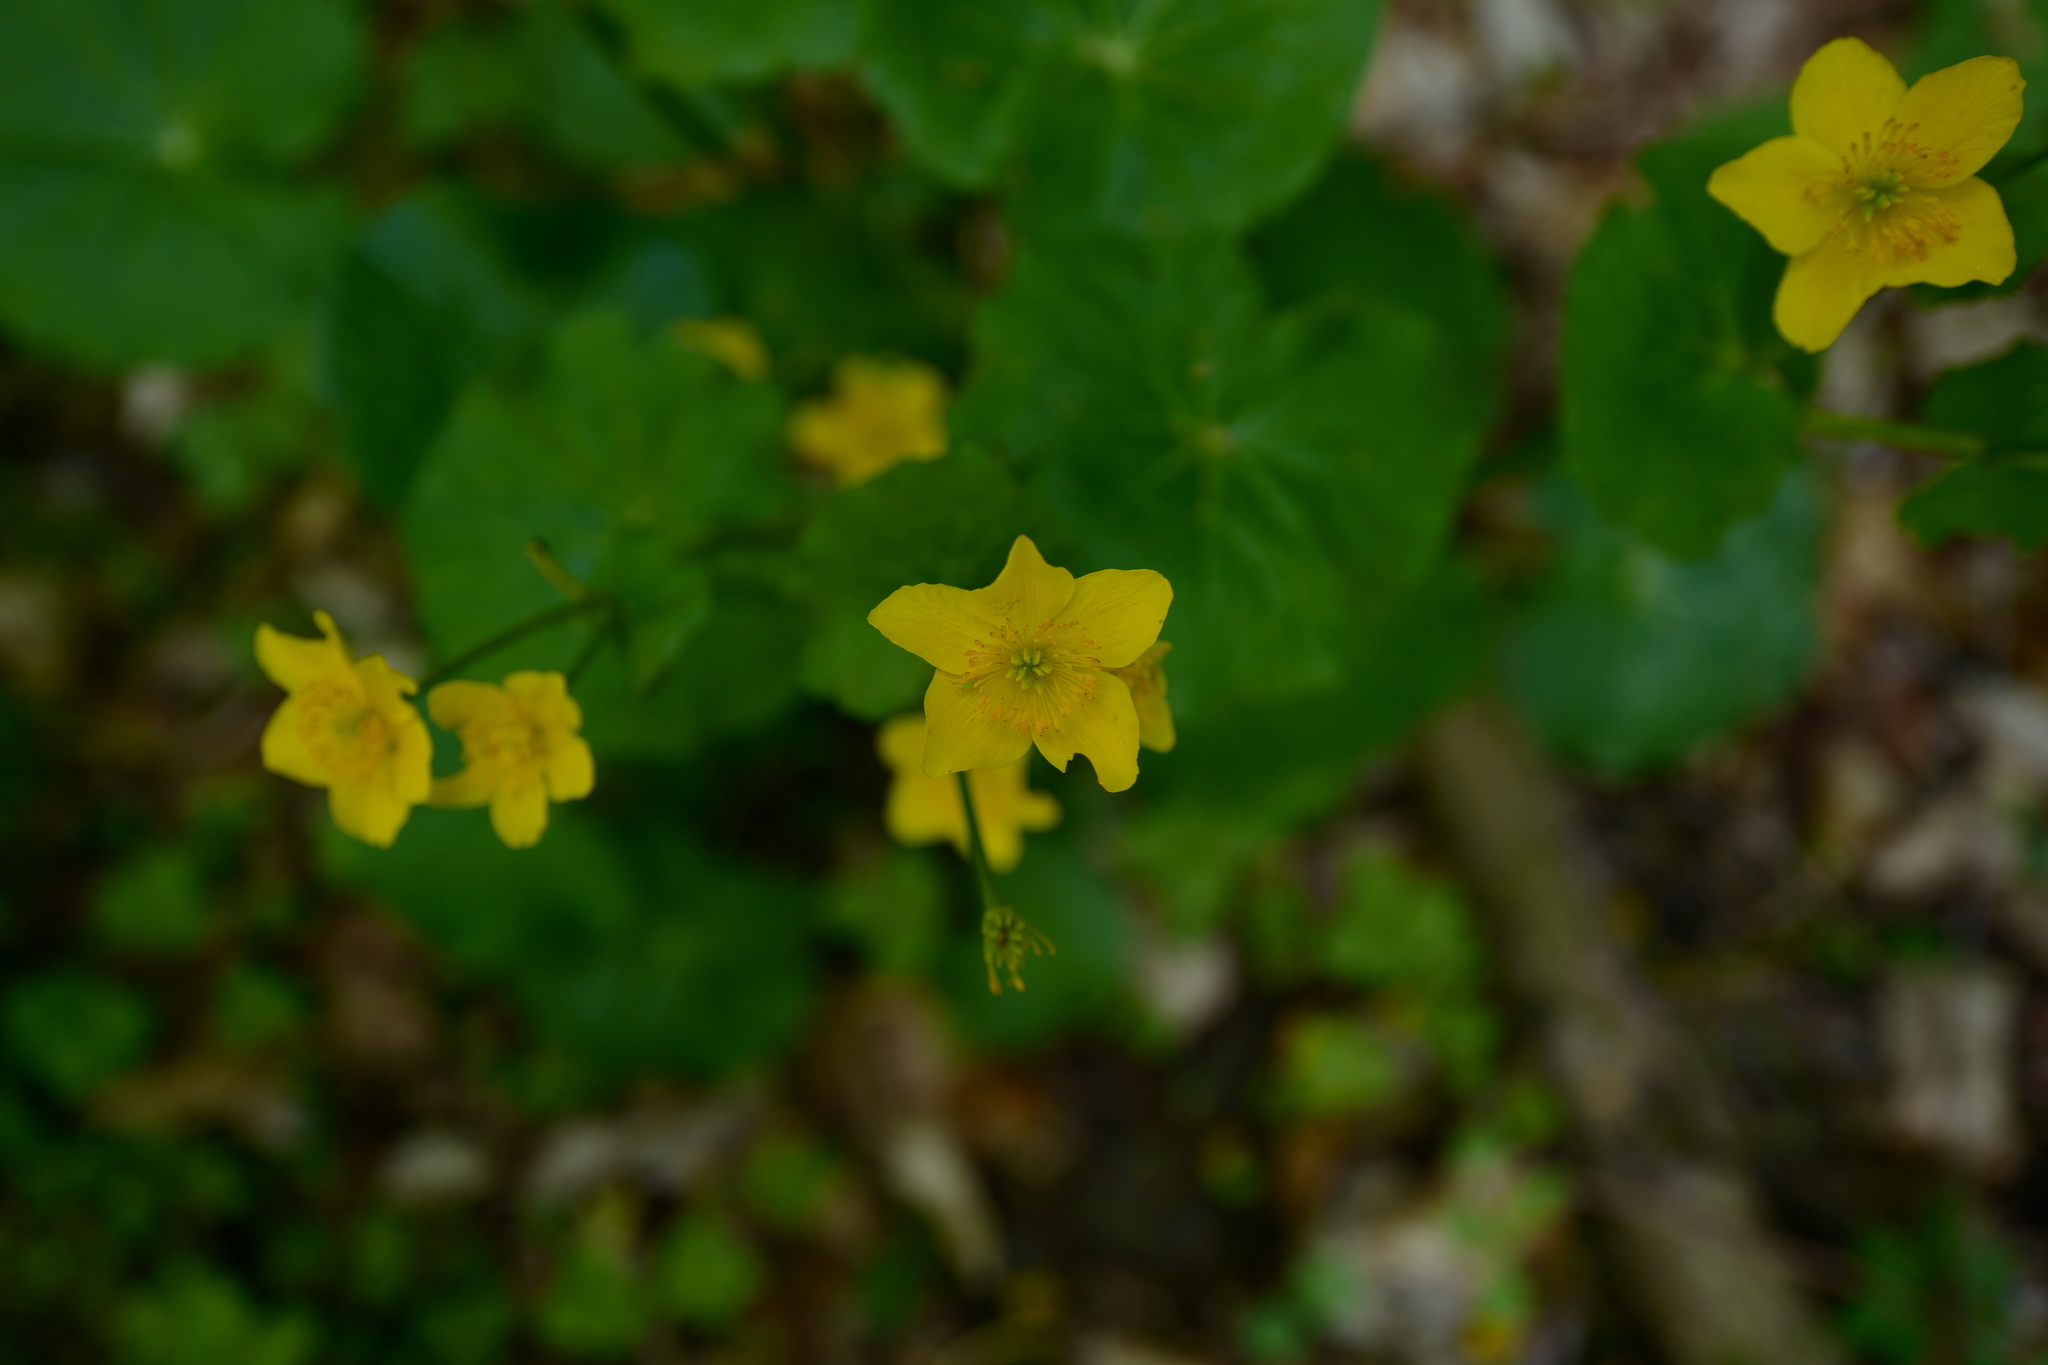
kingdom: Plantae
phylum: Tracheophyta
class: Magnoliopsida
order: Ranunculales
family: Ranunculaceae
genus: Caltha
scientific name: Caltha palustris
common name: Marsh marigold
